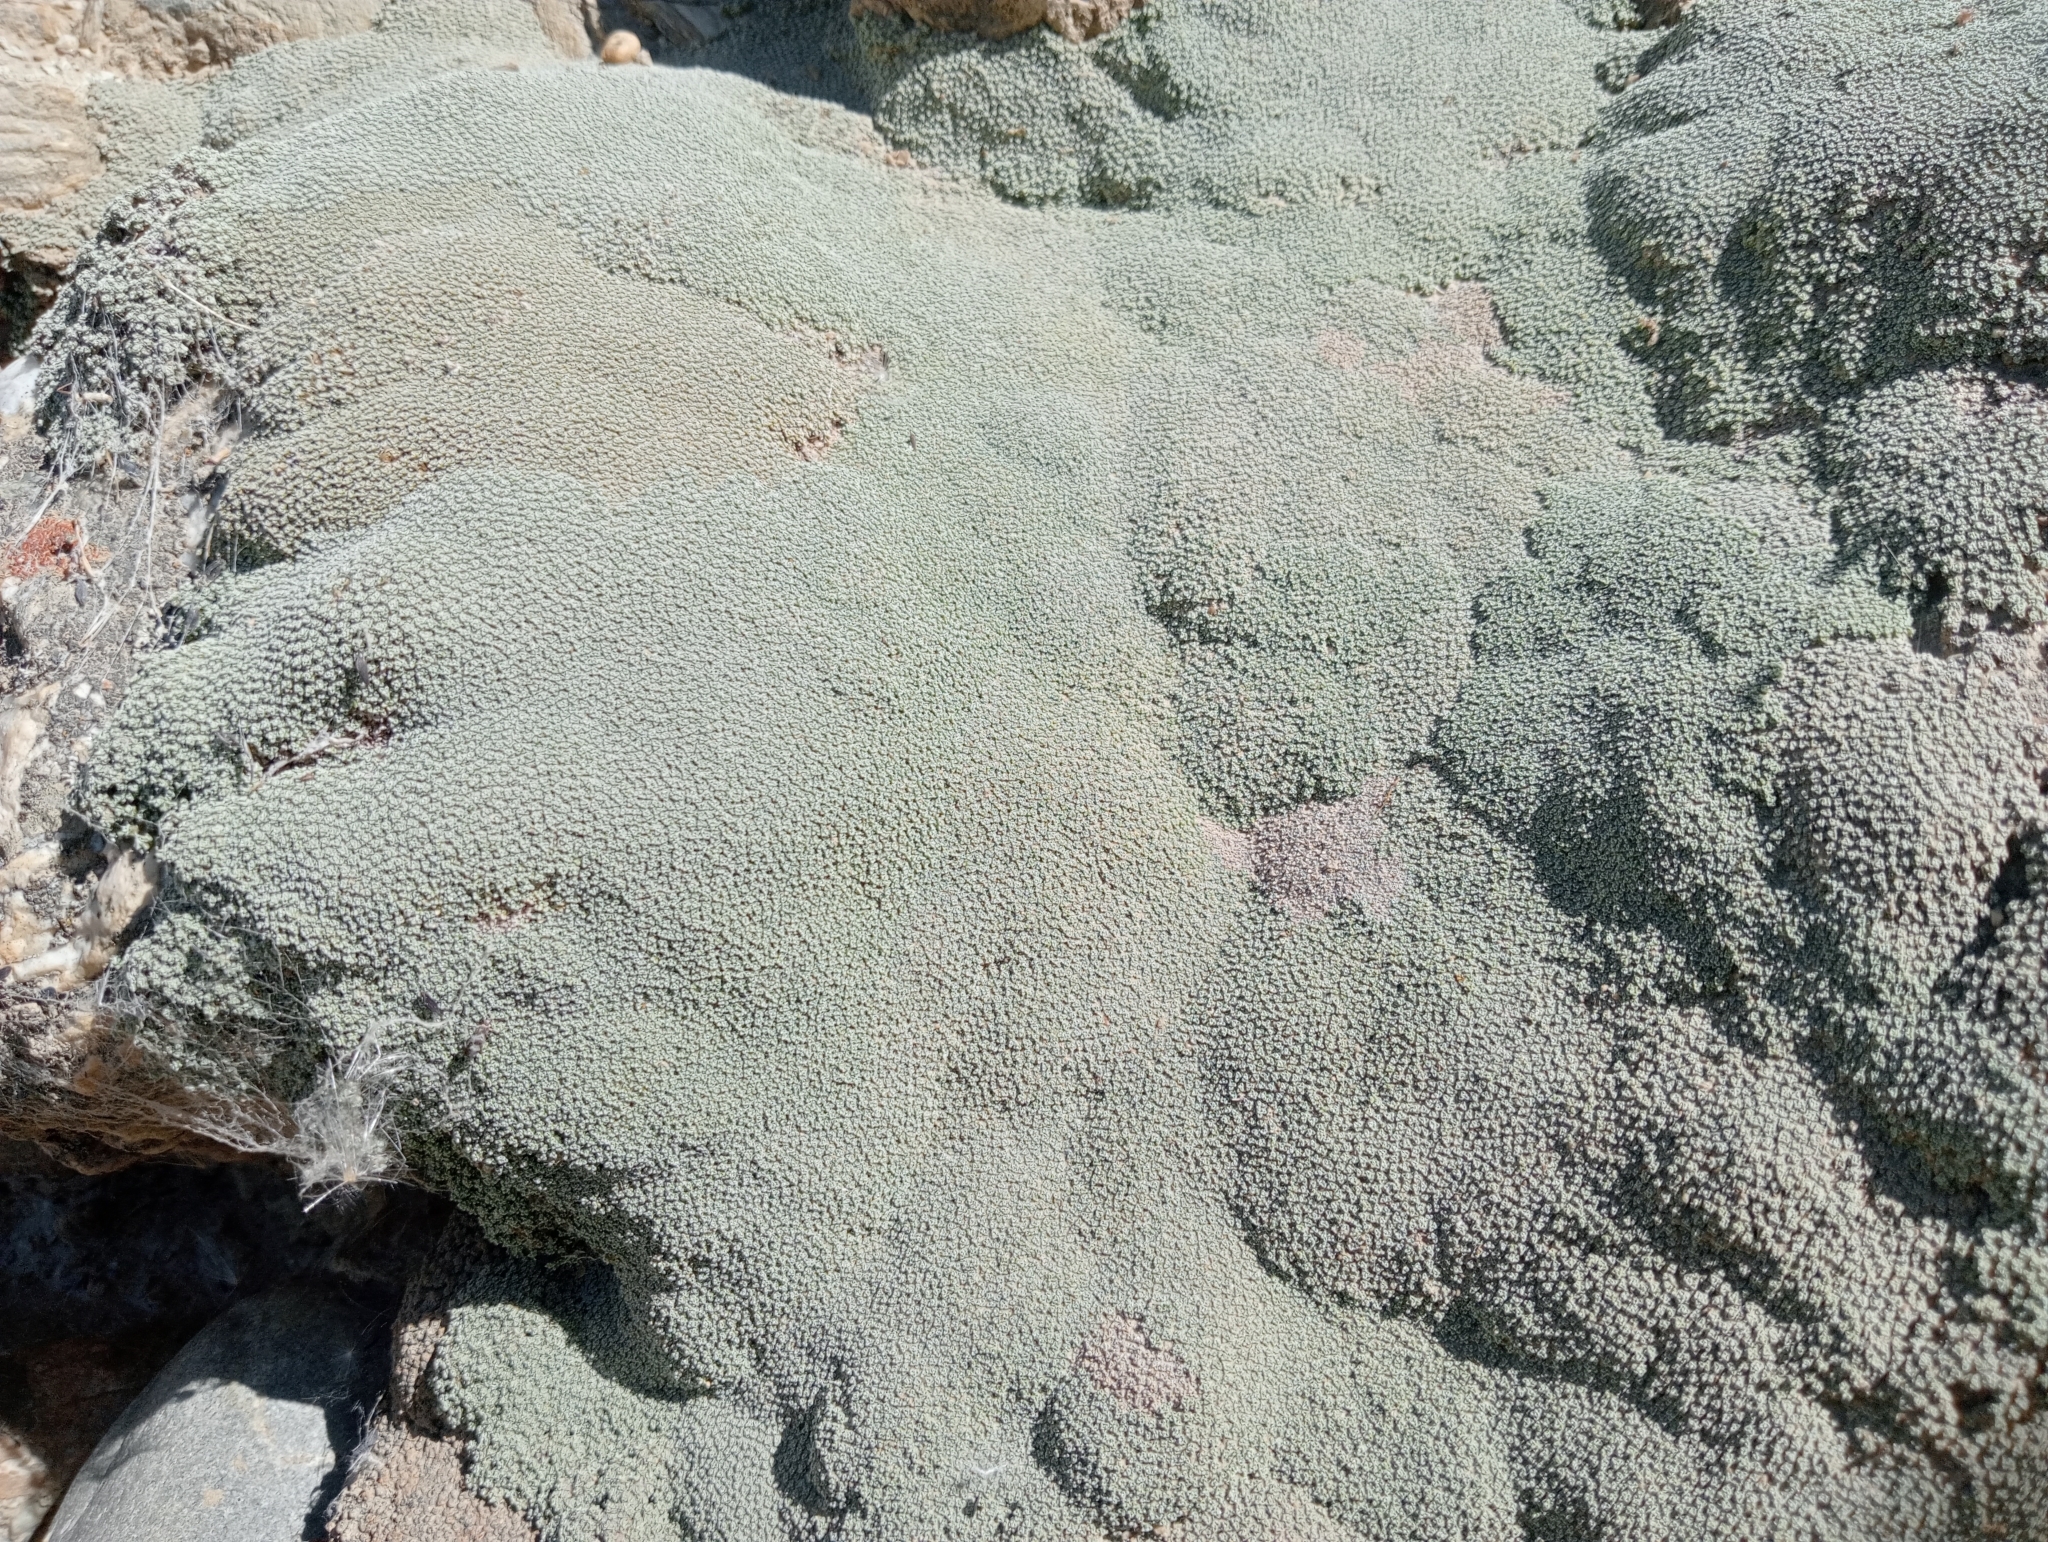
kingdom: Plantae
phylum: Tracheophyta
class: Magnoliopsida
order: Asterales
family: Asteraceae
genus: Raoulia
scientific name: Raoulia australis
